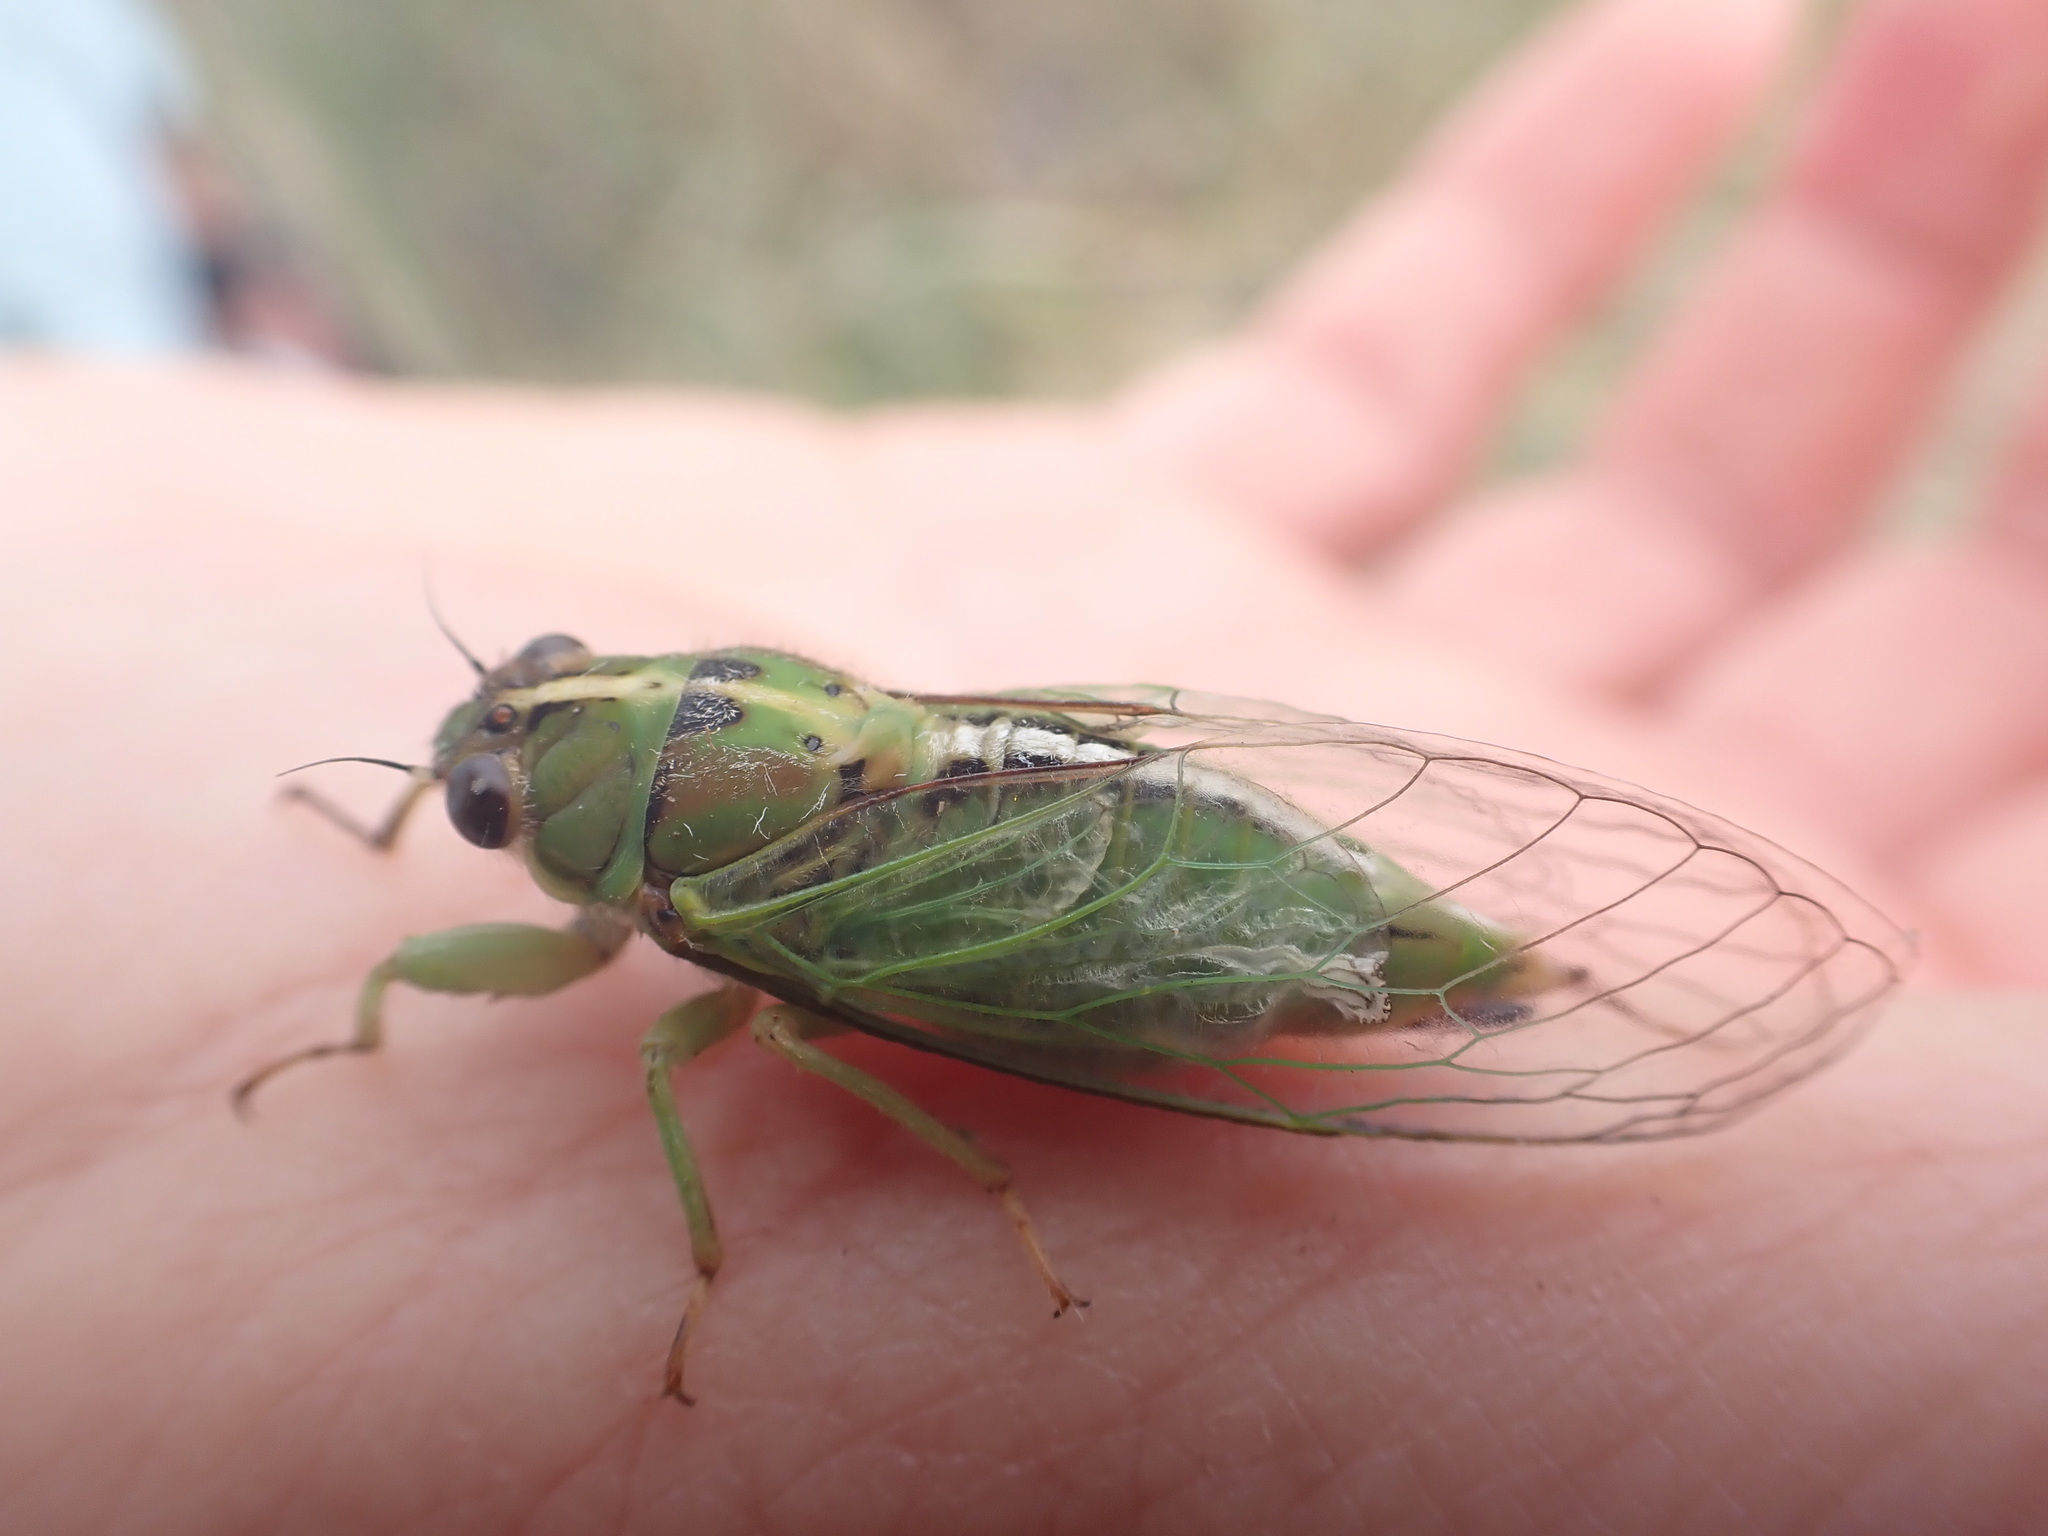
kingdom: Animalia
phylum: Arthropoda
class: Insecta
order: Hemiptera
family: Cicadidae
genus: Kikihia
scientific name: Kikihia longula
